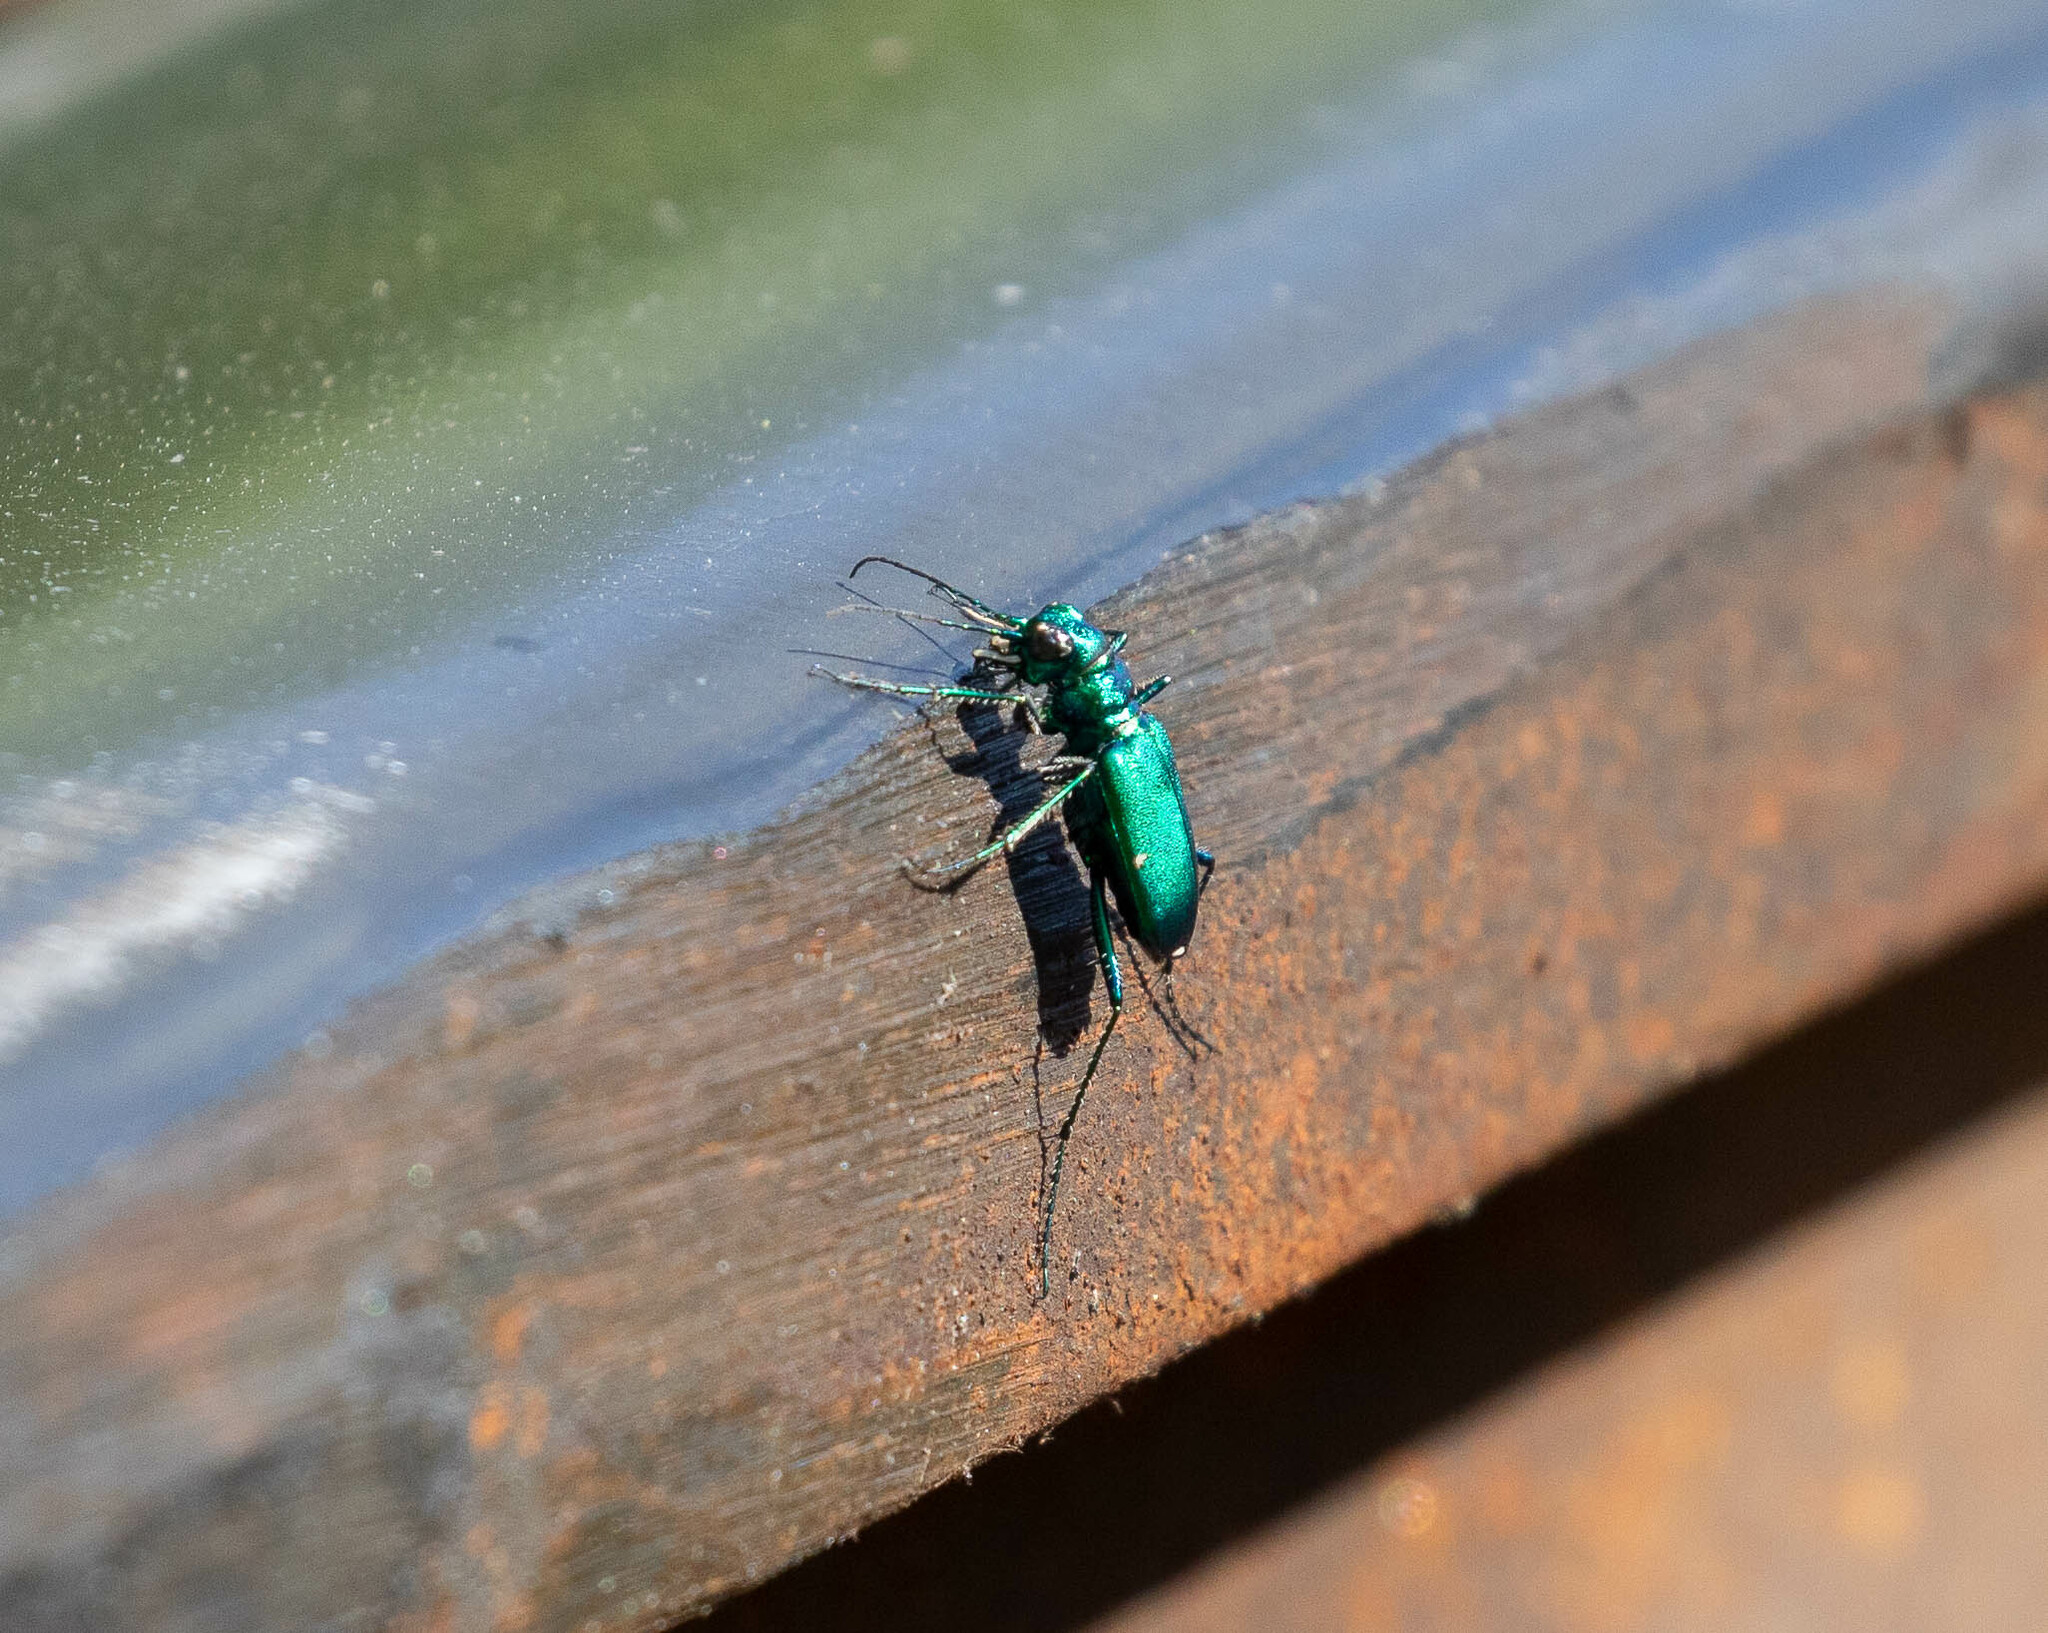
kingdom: Animalia
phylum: Arthropoda
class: Insecta
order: Coleoptera
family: Carabidae
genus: Cicindela
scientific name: Cicindela sexguttata
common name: Six-spotted tiger beetle
